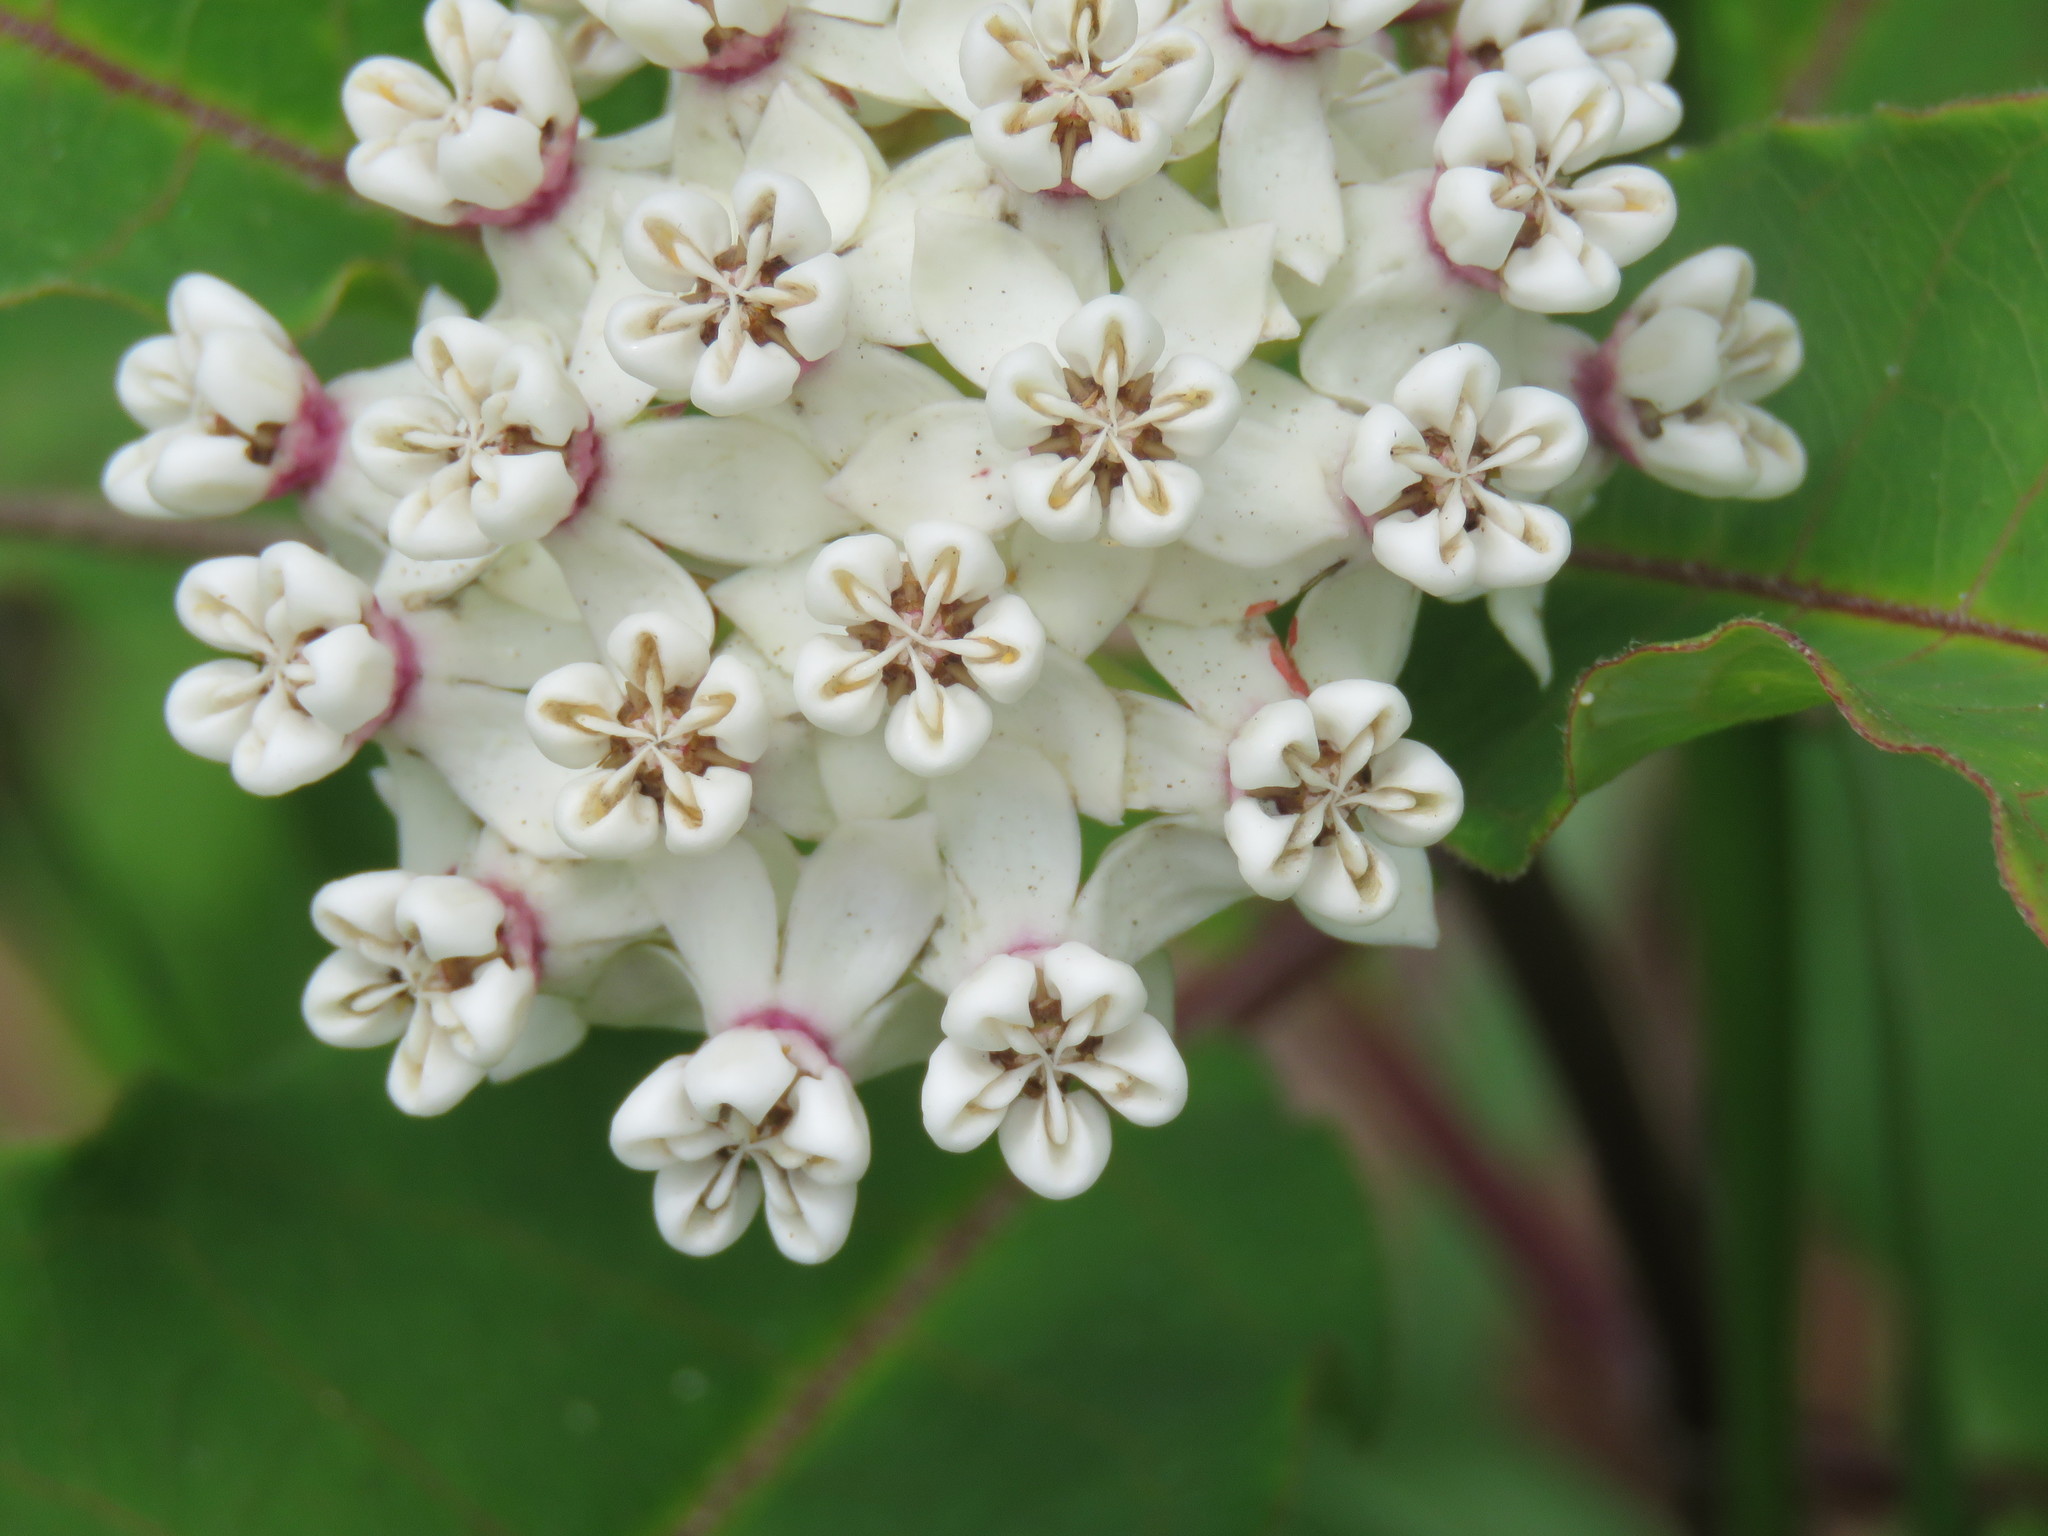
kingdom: Plantae
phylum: Tracheophyta
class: Magnoliopsida
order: Gentianales
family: Apocynaceae
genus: Asclepias
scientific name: Asclepias variegata
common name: Variegated milkweed
